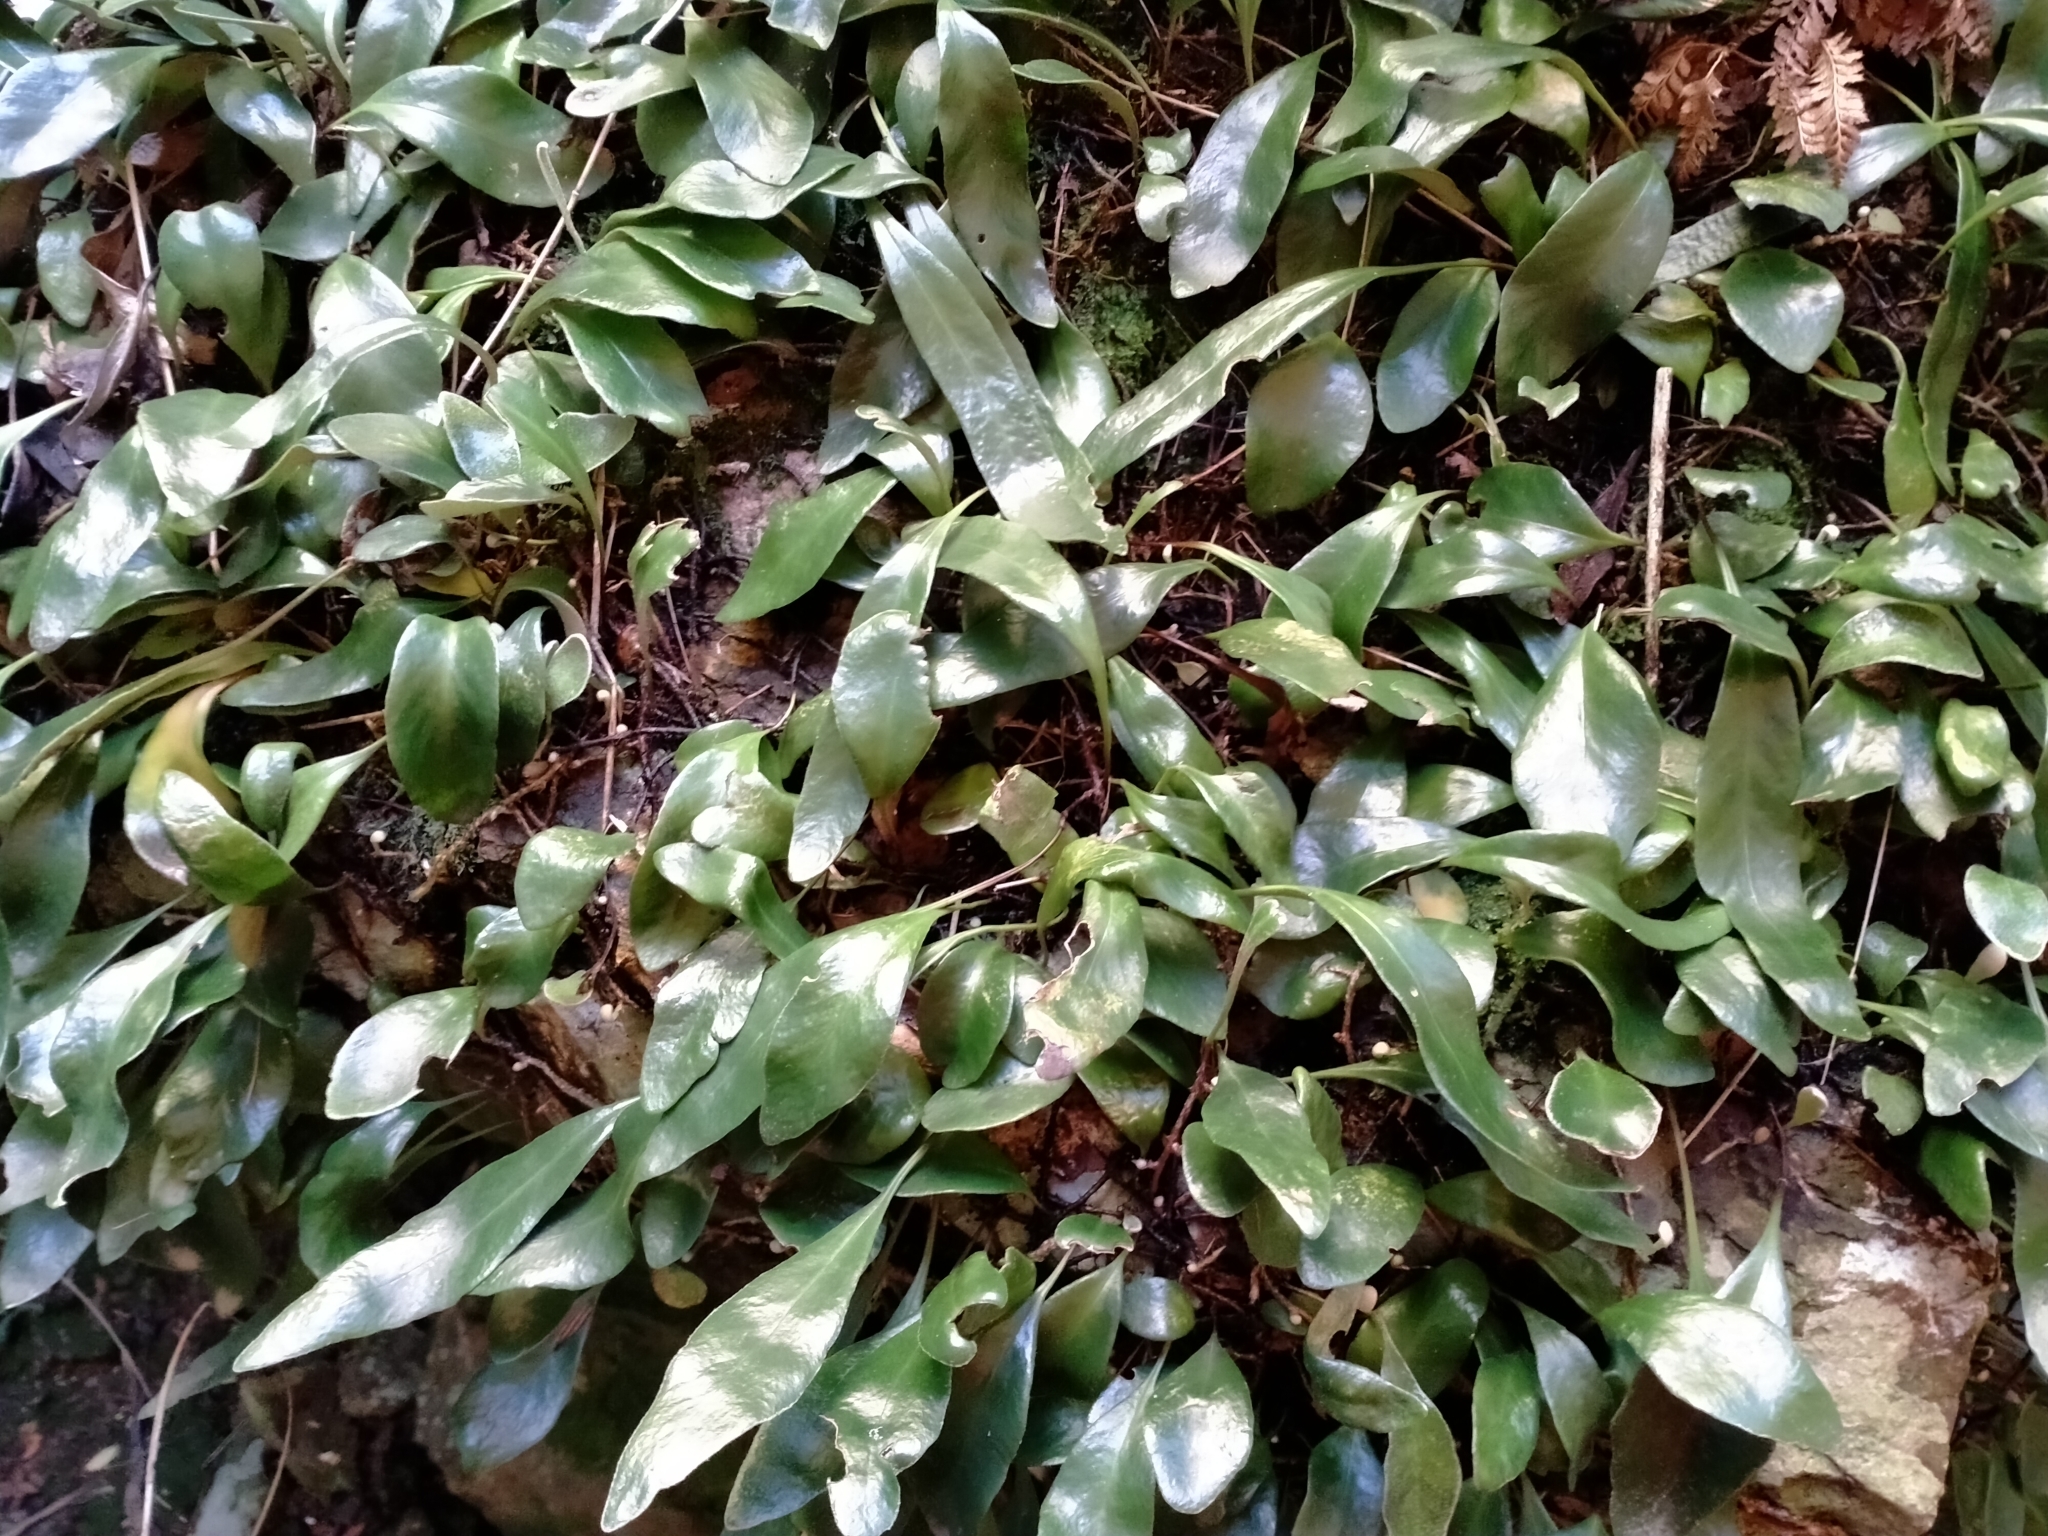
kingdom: Plantae
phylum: Tracheophyta
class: Polypodiopsida
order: Polypodiales
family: Polypodiaceae
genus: Pyrrosia
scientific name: Pyrrosia eleagnifolia
